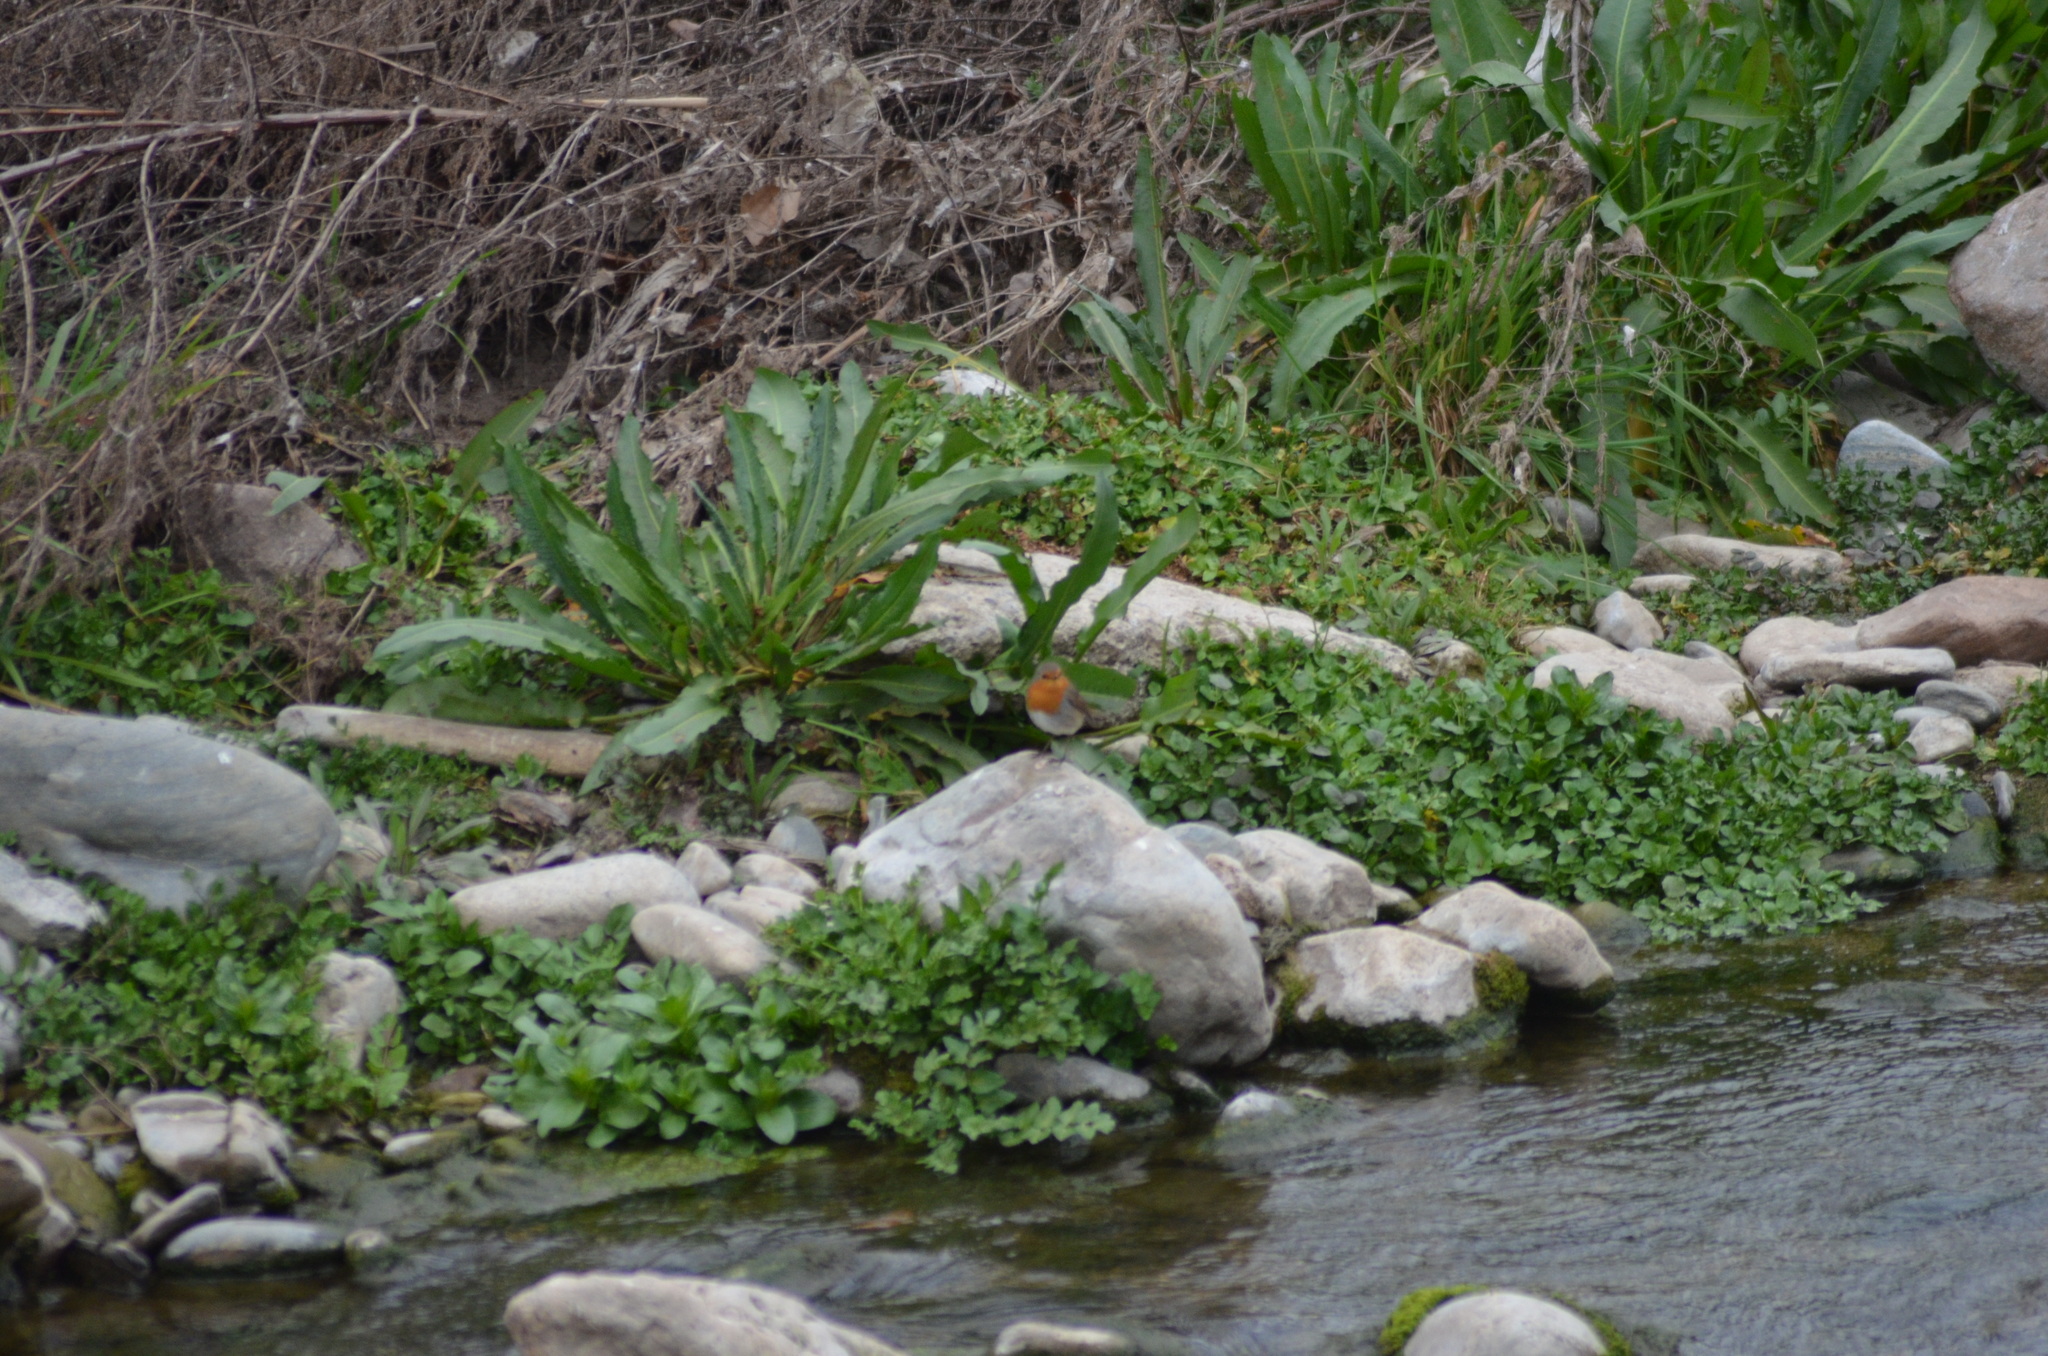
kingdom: Animalia
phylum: Chordata
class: Aves
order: Passeriformes
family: Muscicapidae
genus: Erithacus
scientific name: Erithacus rubecula
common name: European robin
